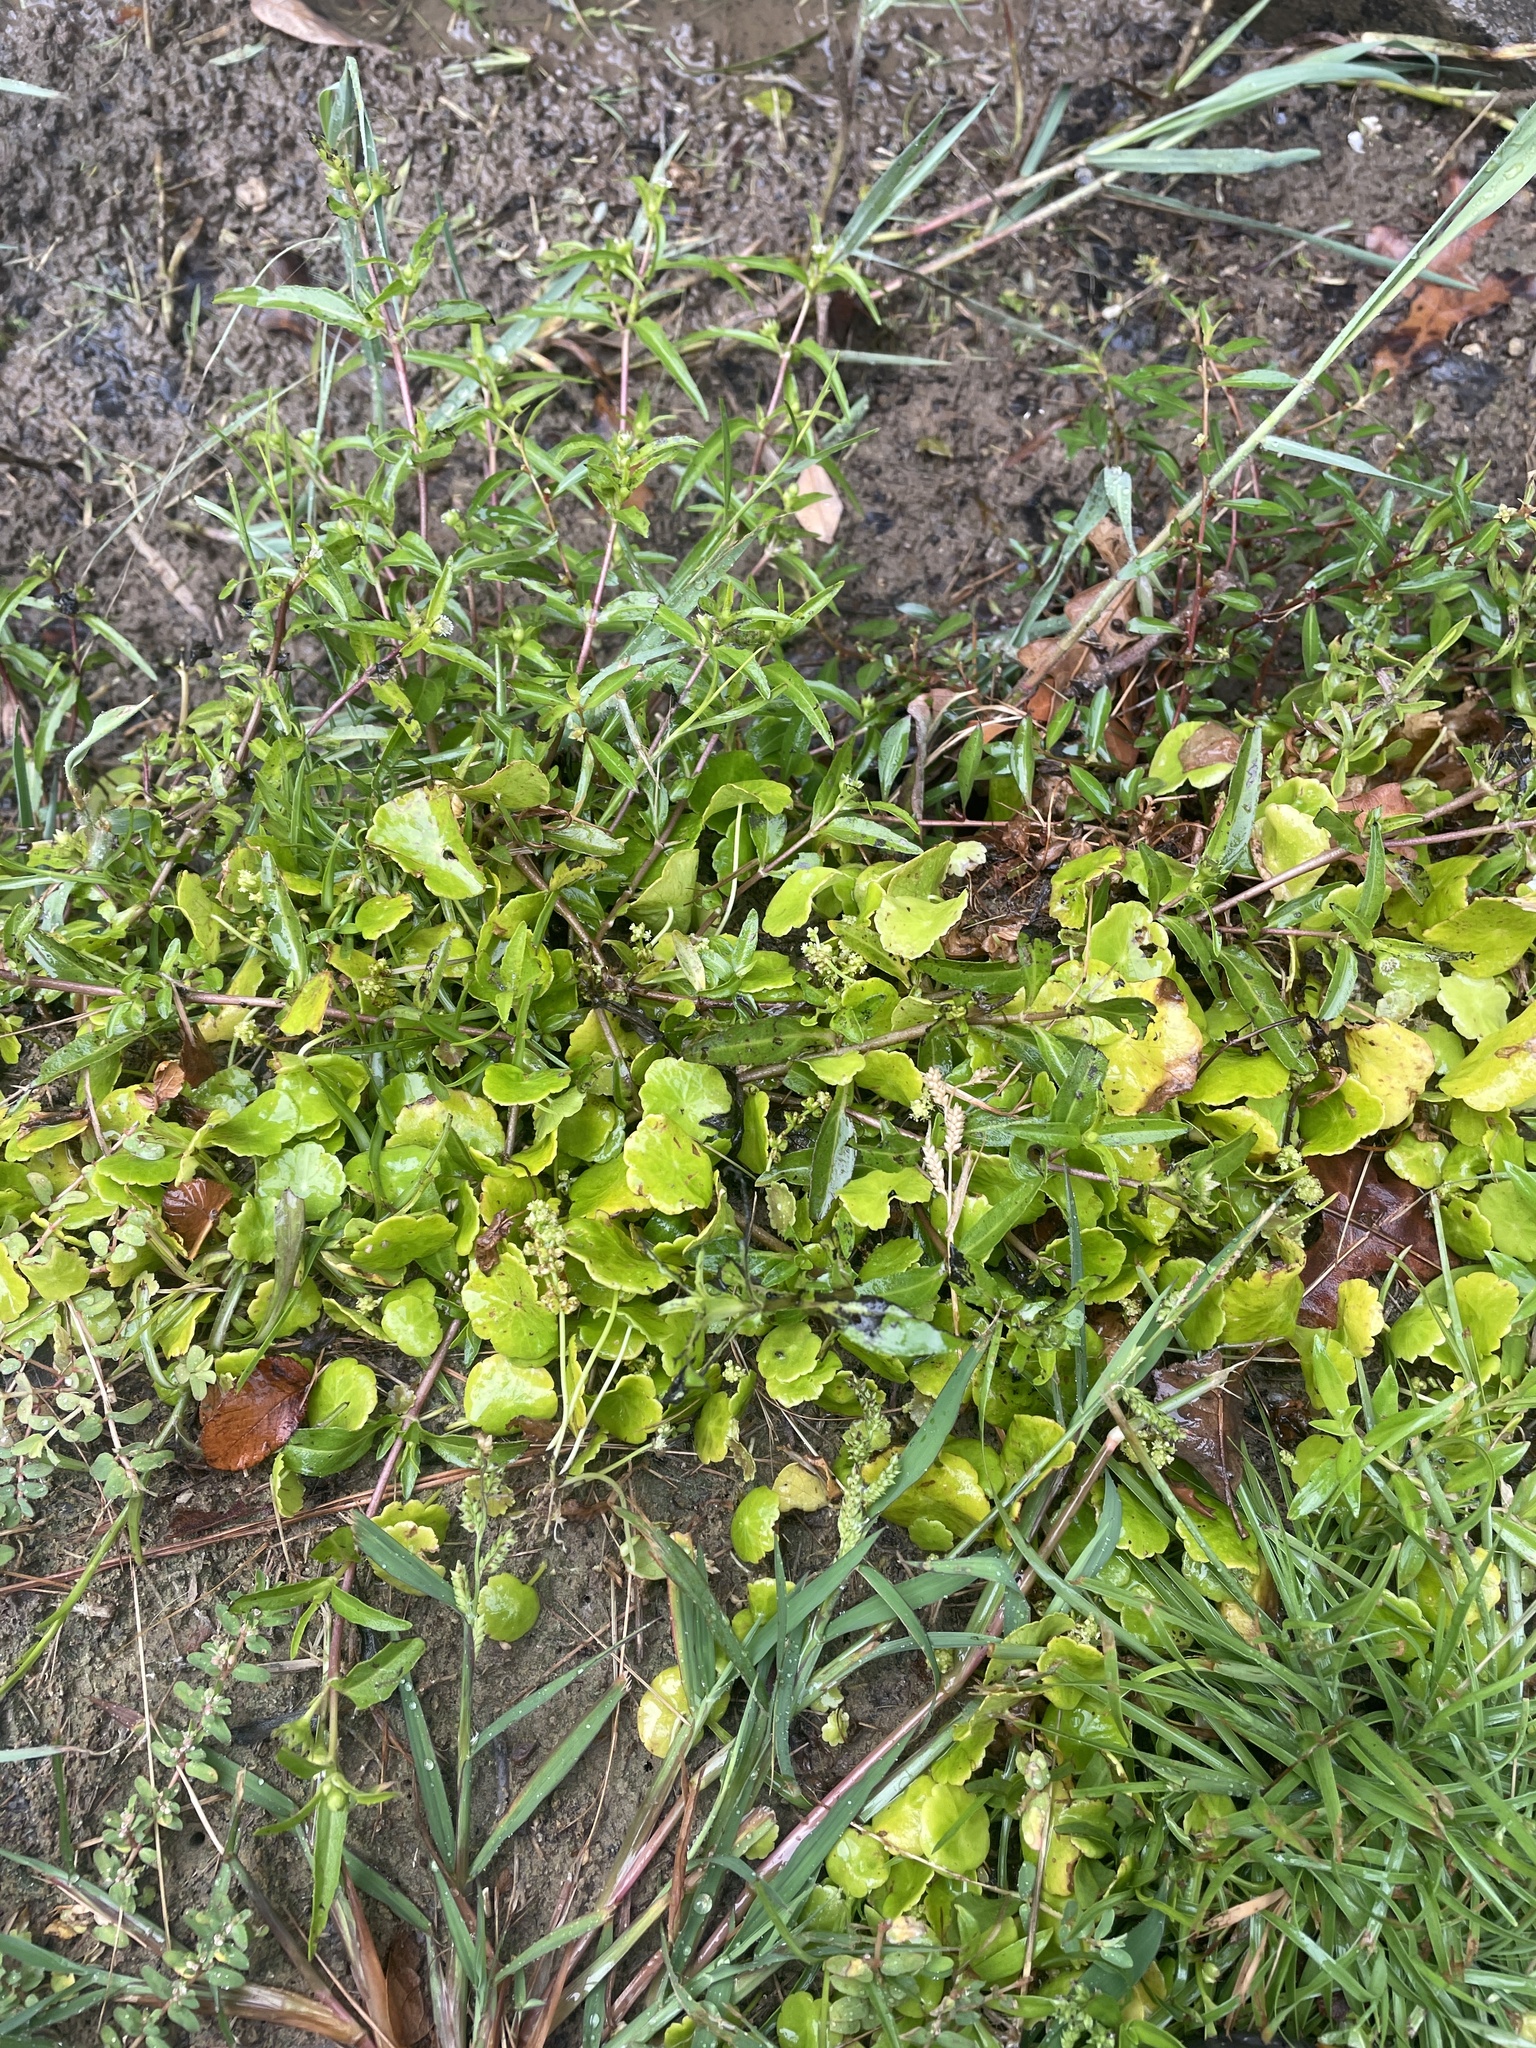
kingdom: Plantae
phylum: Tracheophyta
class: Magnoliopsida
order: Apiales
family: Araliaceae
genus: Hydrocotyle
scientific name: Hydrocotyle verticillata
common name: Whorled marshpennywort
